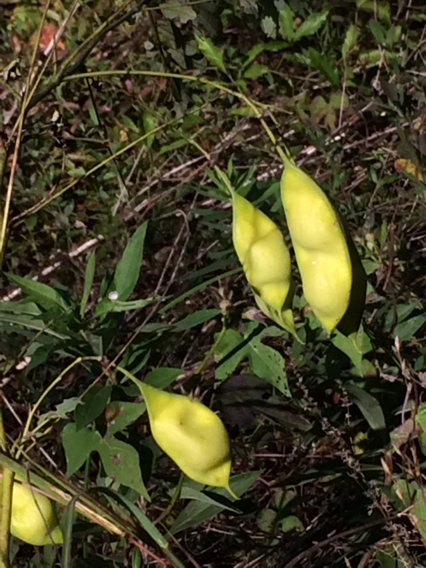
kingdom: Plantae
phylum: Tracheophyta
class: Magnoliopsida
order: Fabales
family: Fabaceae
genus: Sesbania
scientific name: Sesbania vesicaria
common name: Bagpod
